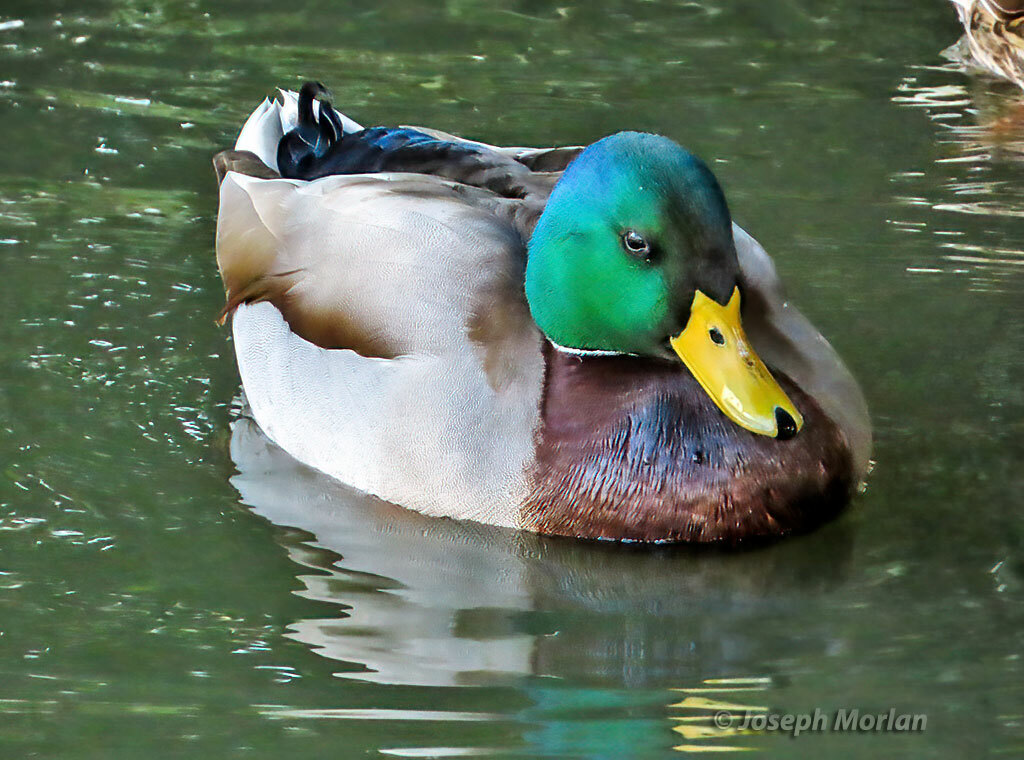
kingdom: Animalia
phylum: Chordata
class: Aves
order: Anseriformes
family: Anatidae
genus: Anas
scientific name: Anas platyrhynchos
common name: Mallard
